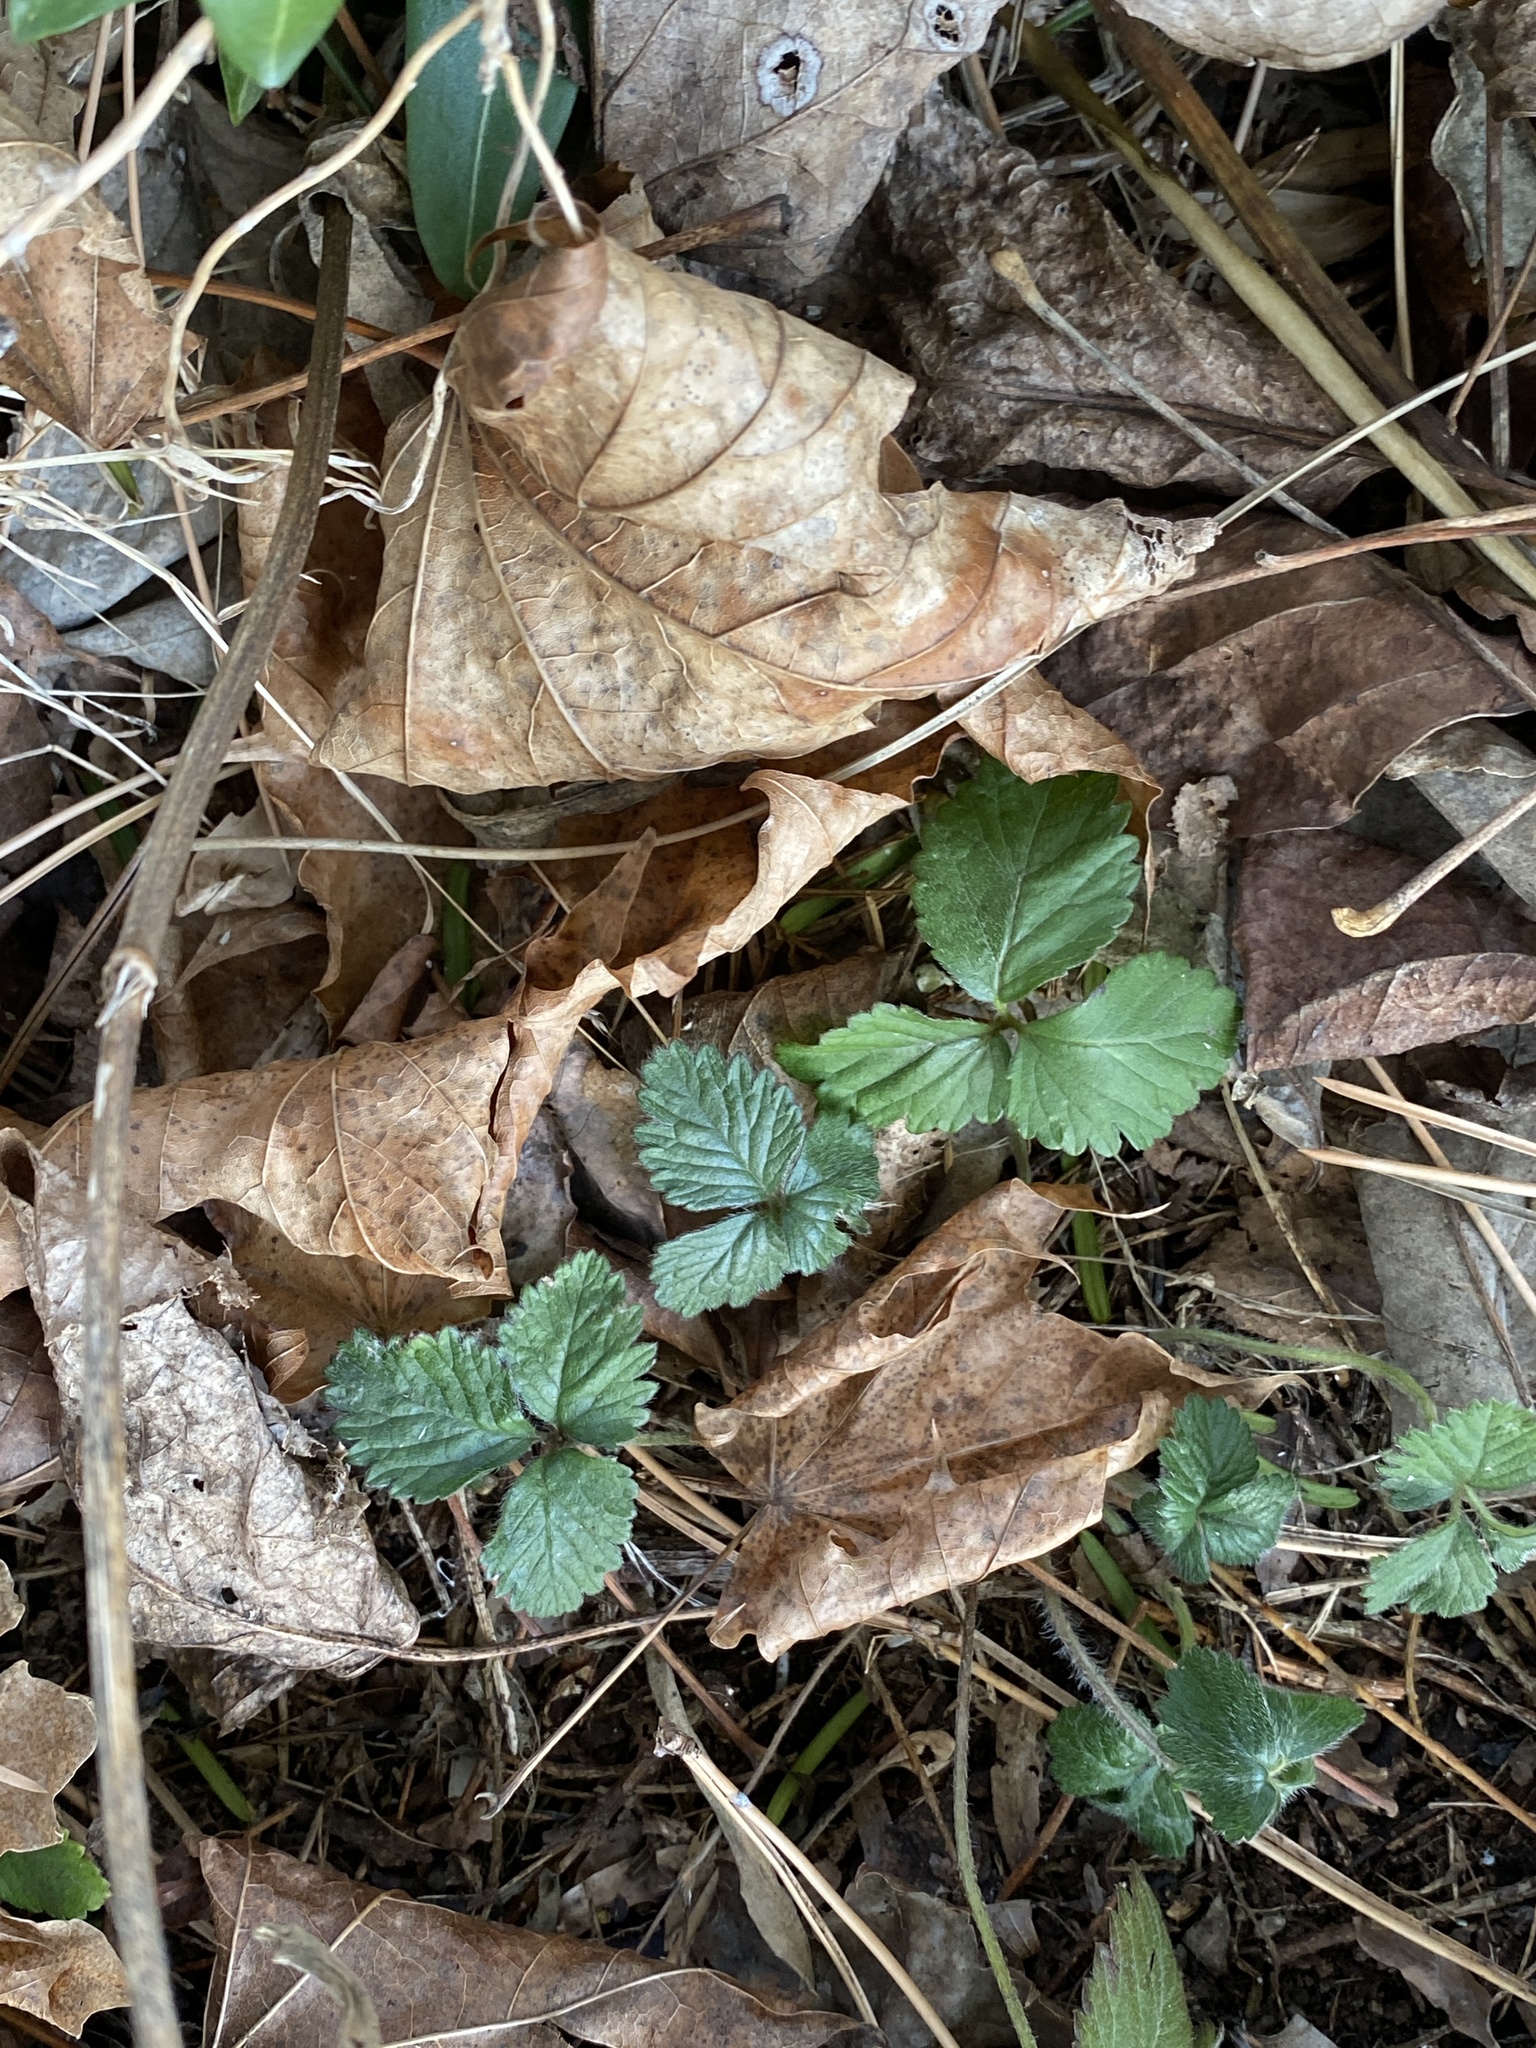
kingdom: Plantae
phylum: Tracheophyta
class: Magnoliopsida
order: Rosales
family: Rosaceae
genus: Potentilla
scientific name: Potentilla indica
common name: Yellow-flowered strawberry
